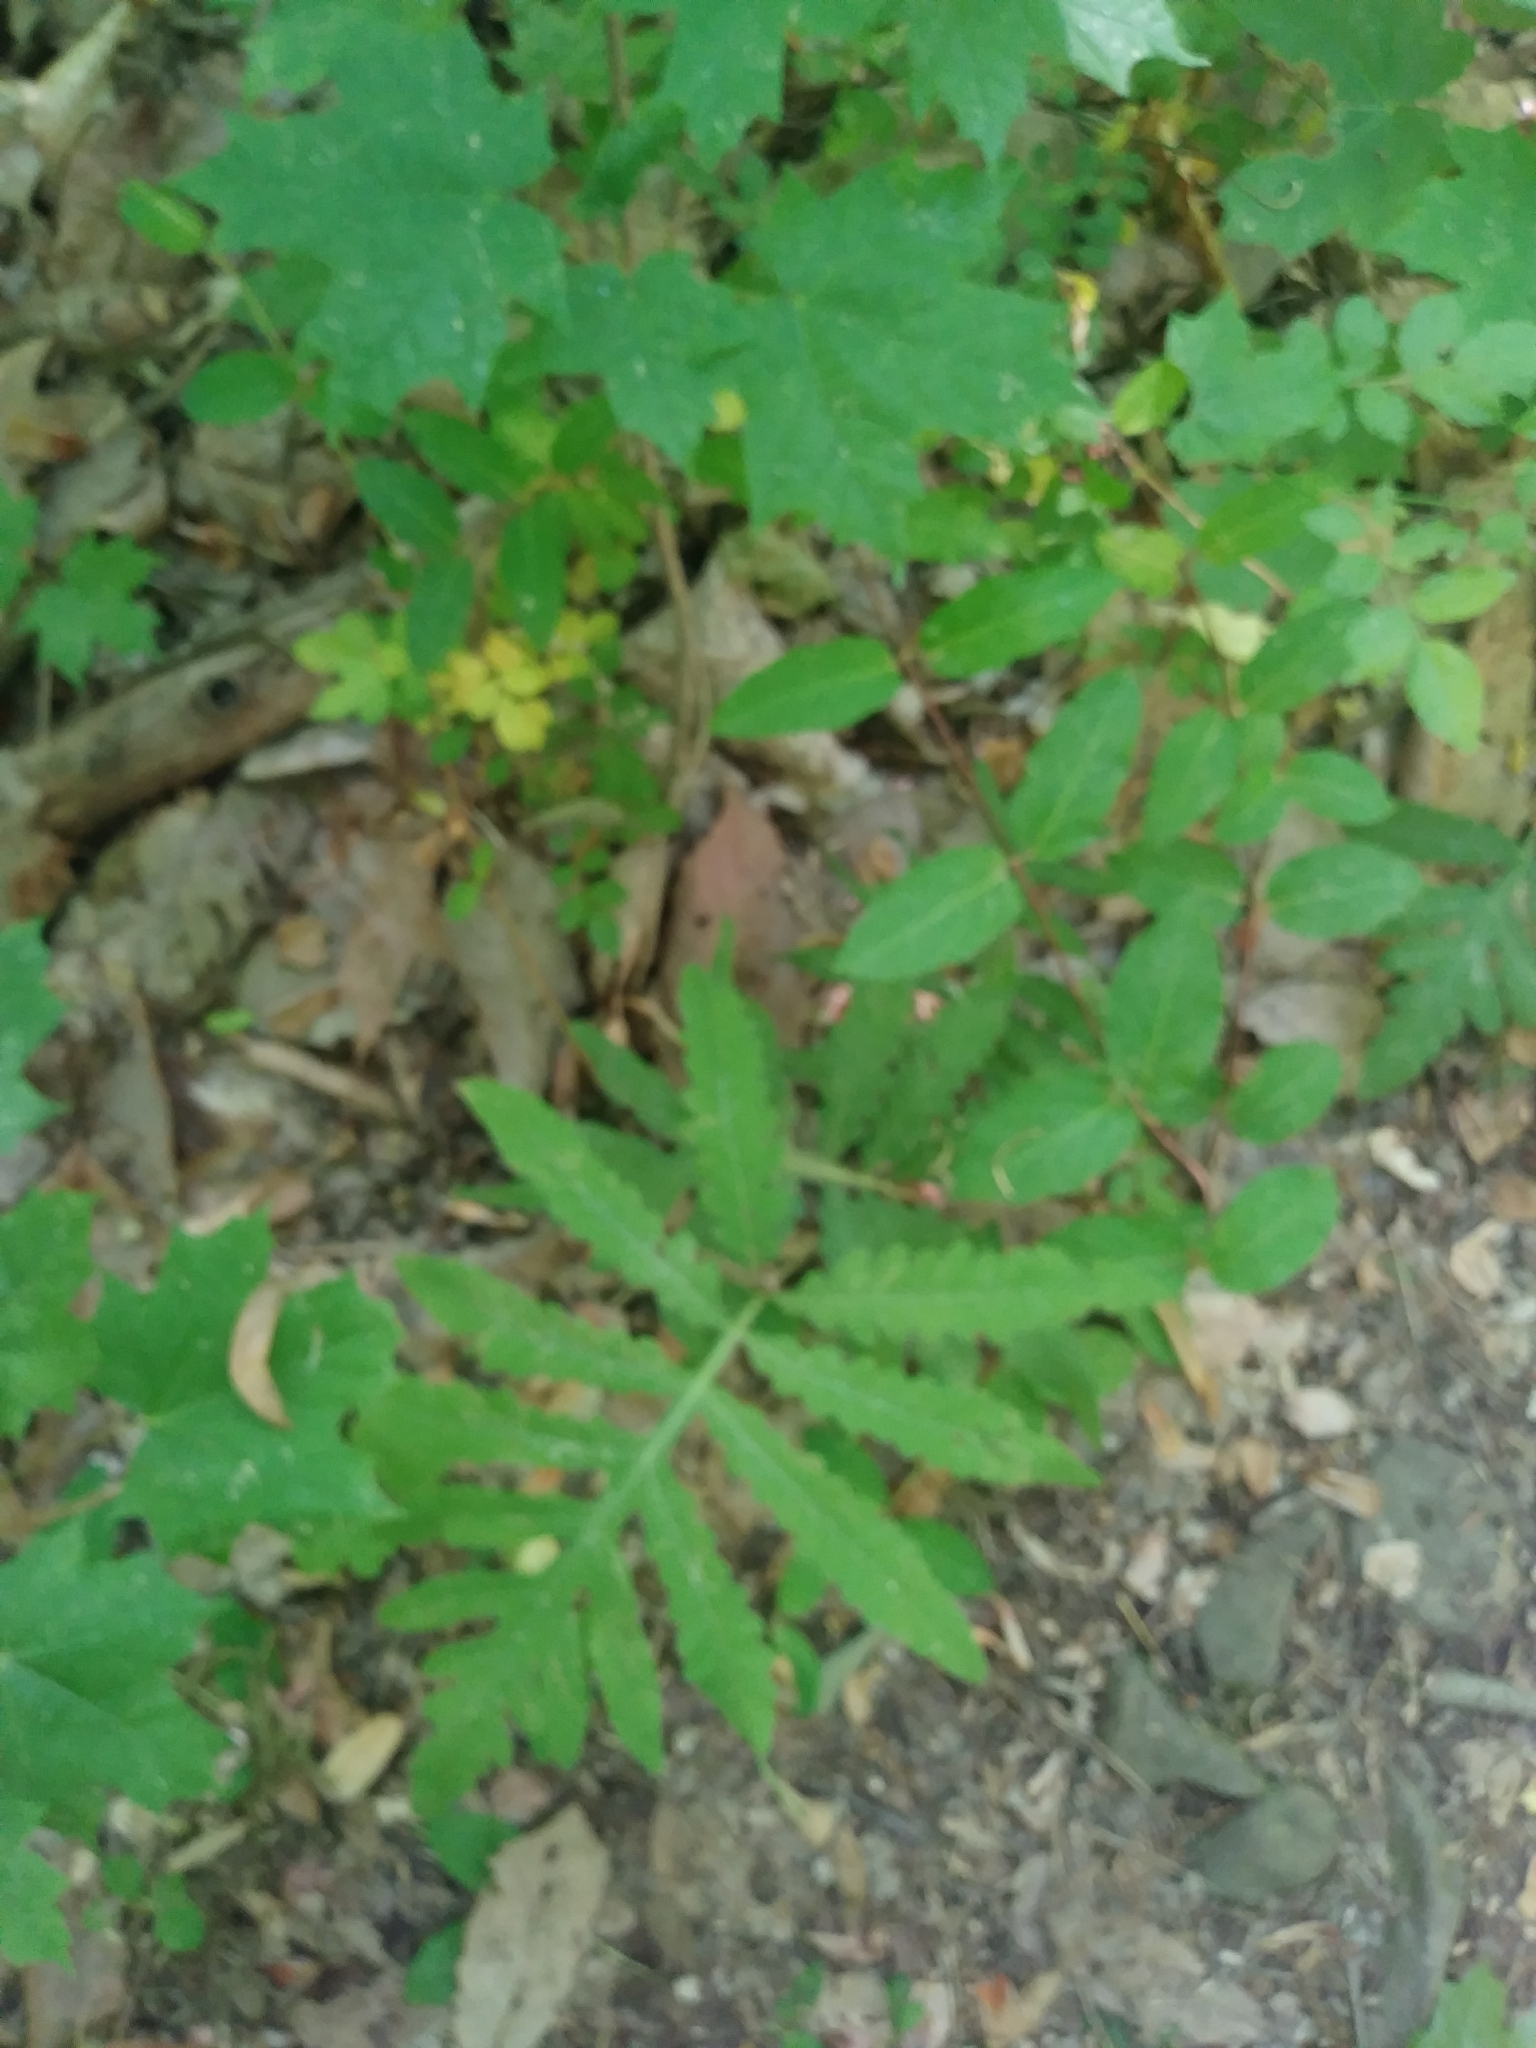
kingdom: Plantae
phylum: Tracheophyta
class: Polypodiopsida
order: Polypodiales
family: Onocleaceae
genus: Onoclea
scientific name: Onoclea sensibilis
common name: Sensitive fern
